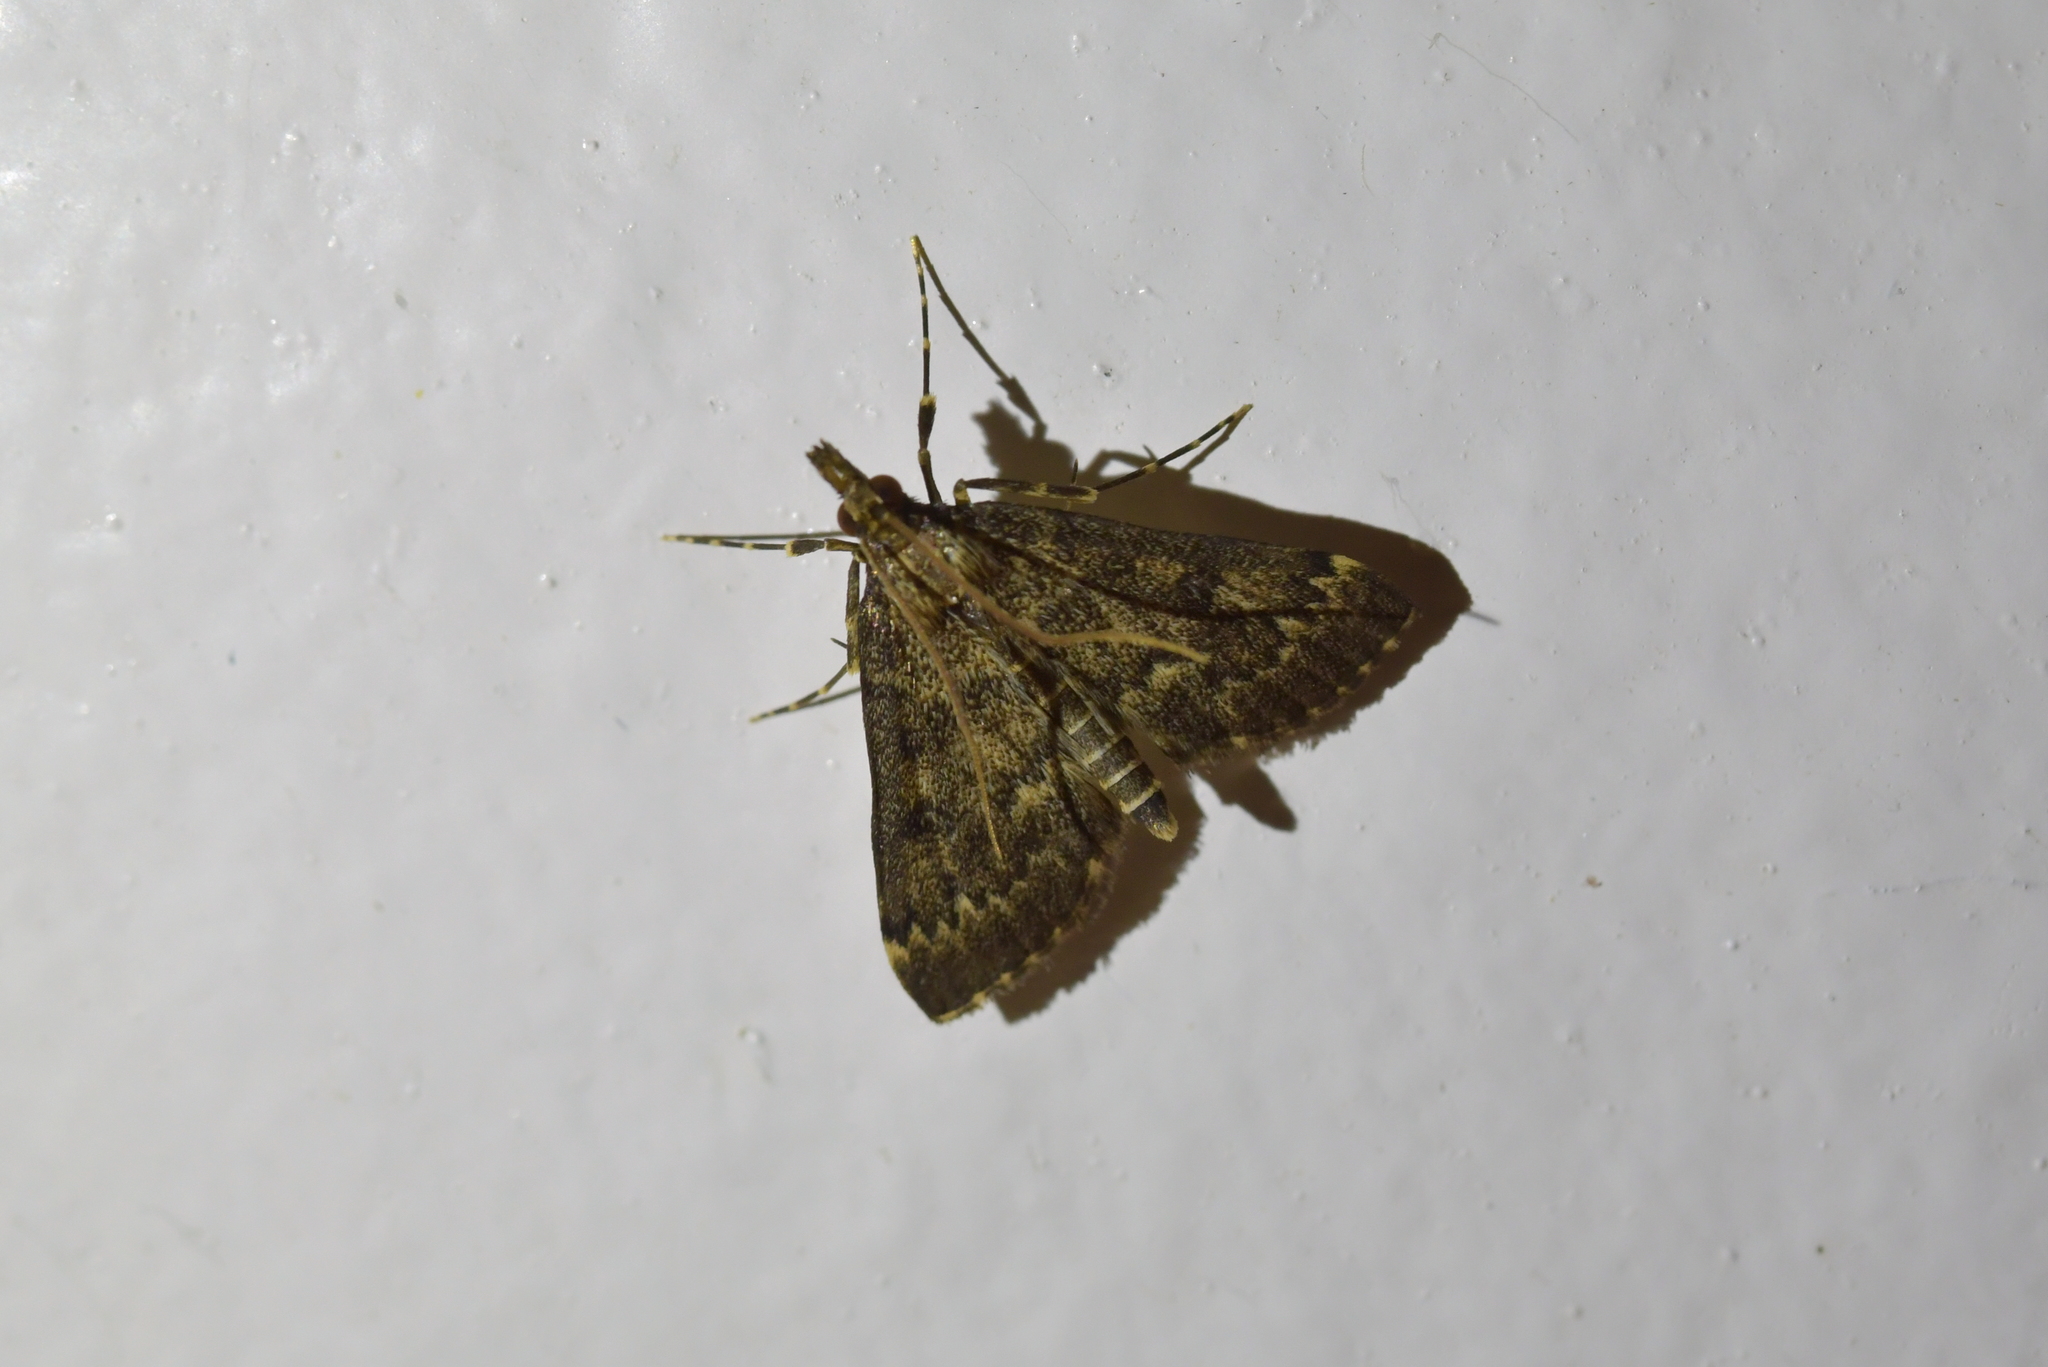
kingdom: Animalia
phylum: Arthropoda
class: Insecta
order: Lepidoptera
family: Crambidae
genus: Loxostege
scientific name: Loxostege Proternia philocapna
